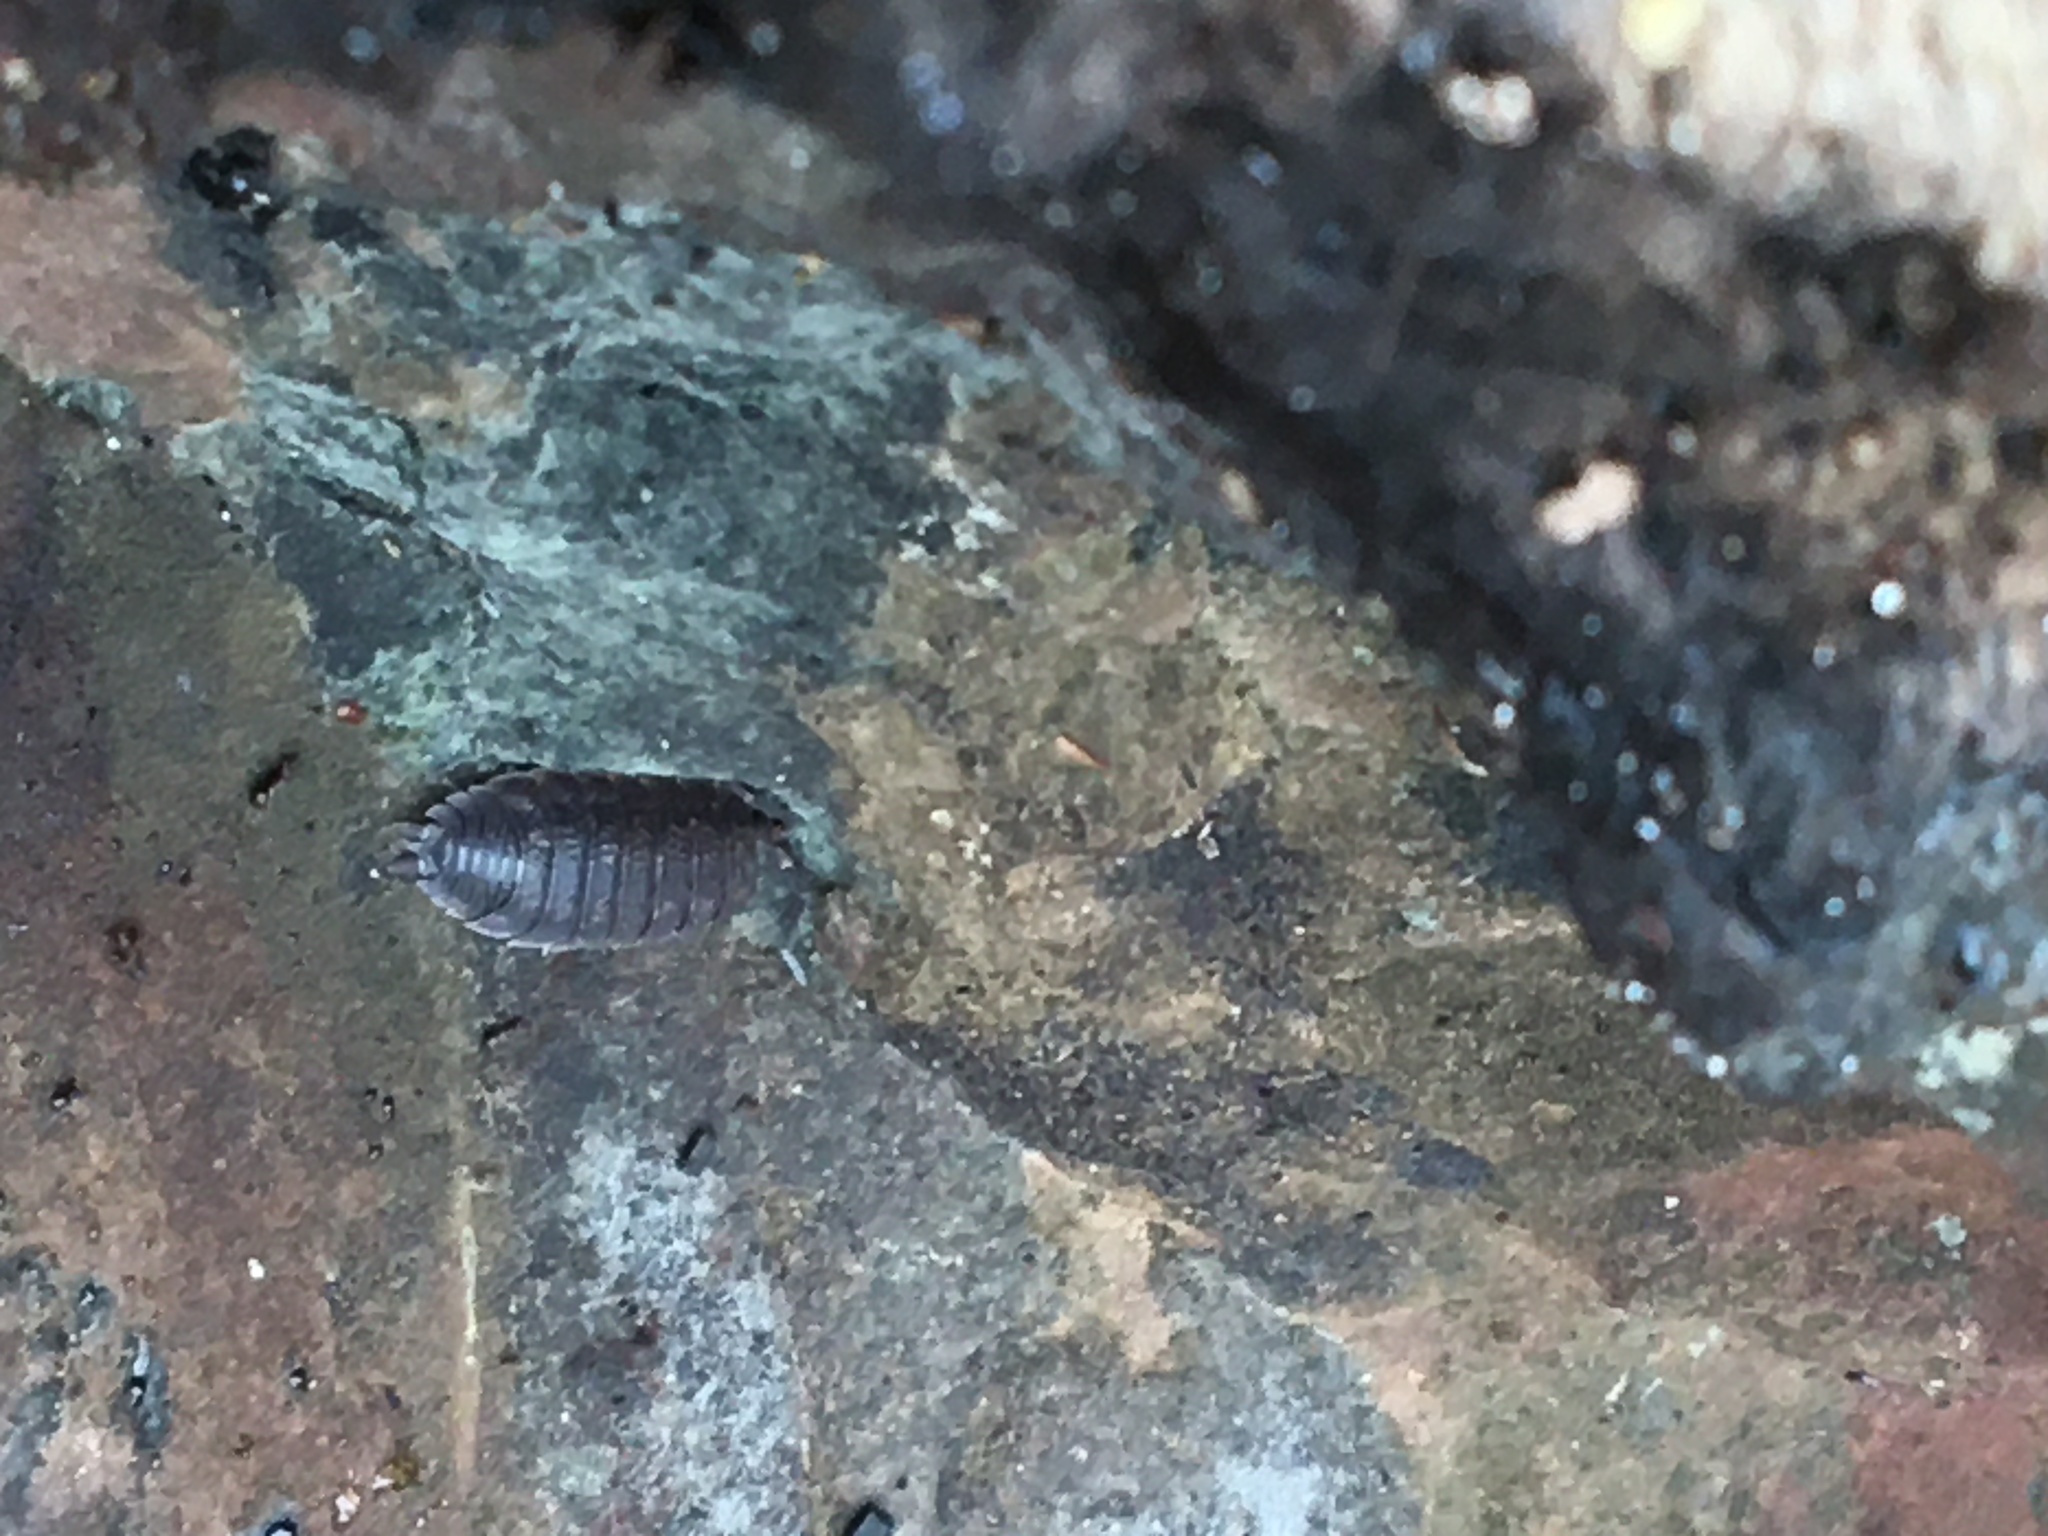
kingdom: Animalia
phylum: Arthropoda
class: Malacostraca
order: Isopoda
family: Porcellionidae
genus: Porcellio
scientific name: Porcellio scaber
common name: Common rough woodlouse
